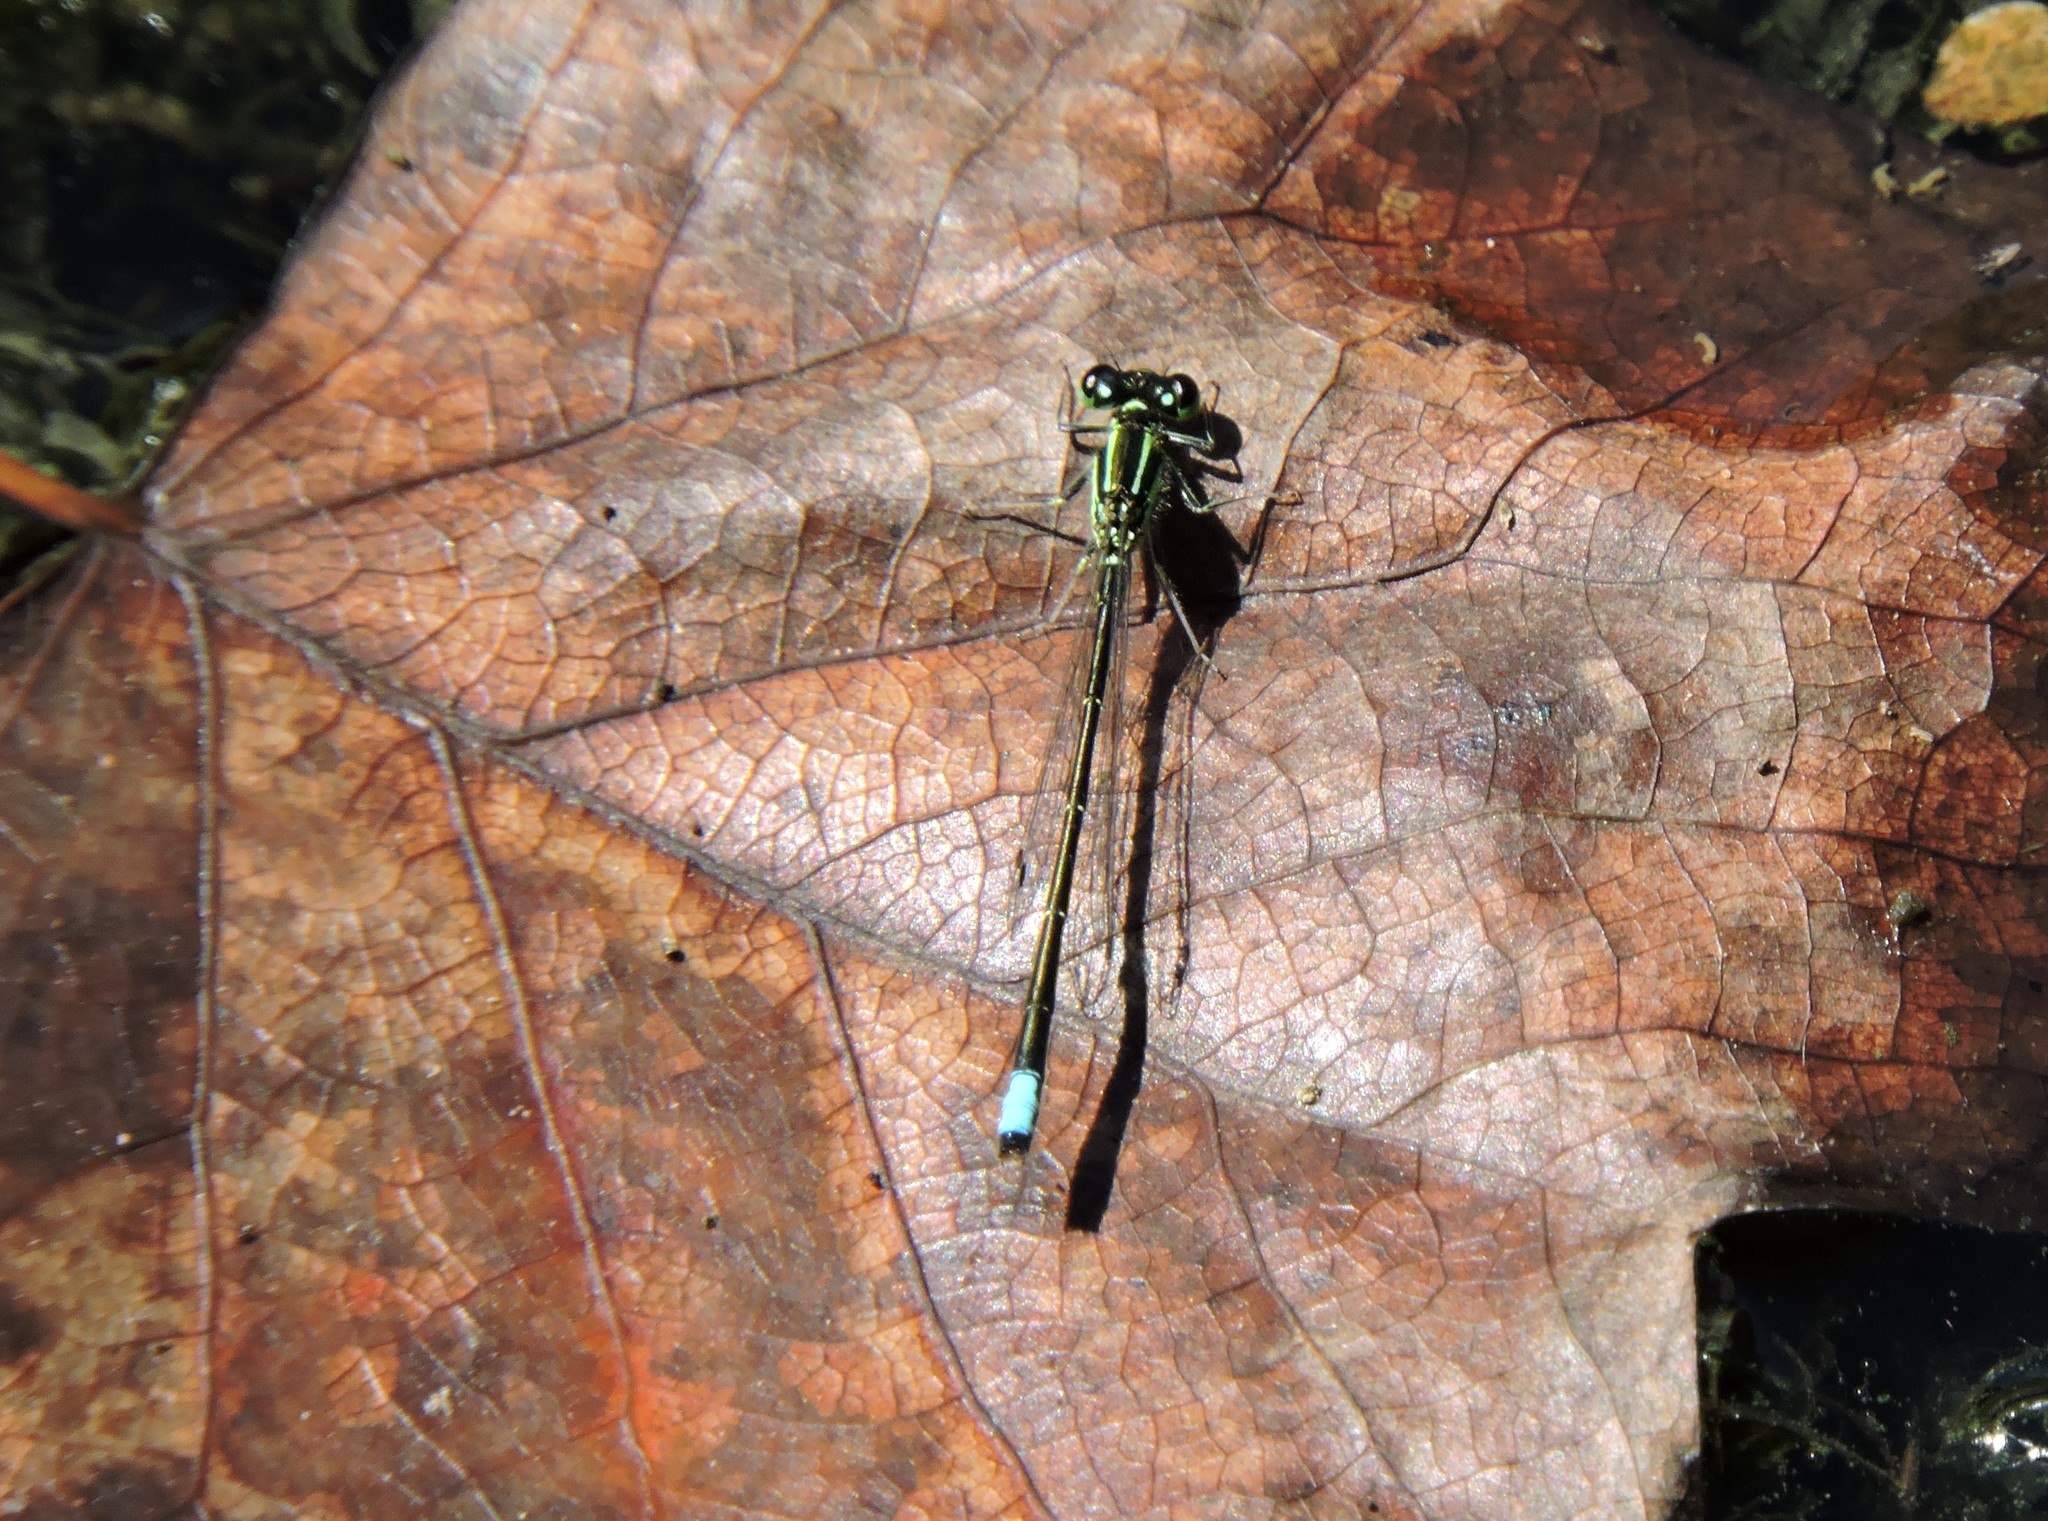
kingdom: Animalia
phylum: Arthropoda
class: Insecta
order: Odonata
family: Coenagrionidae
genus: Ischnura
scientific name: Ischnura verticalis
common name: Eastern forktail
